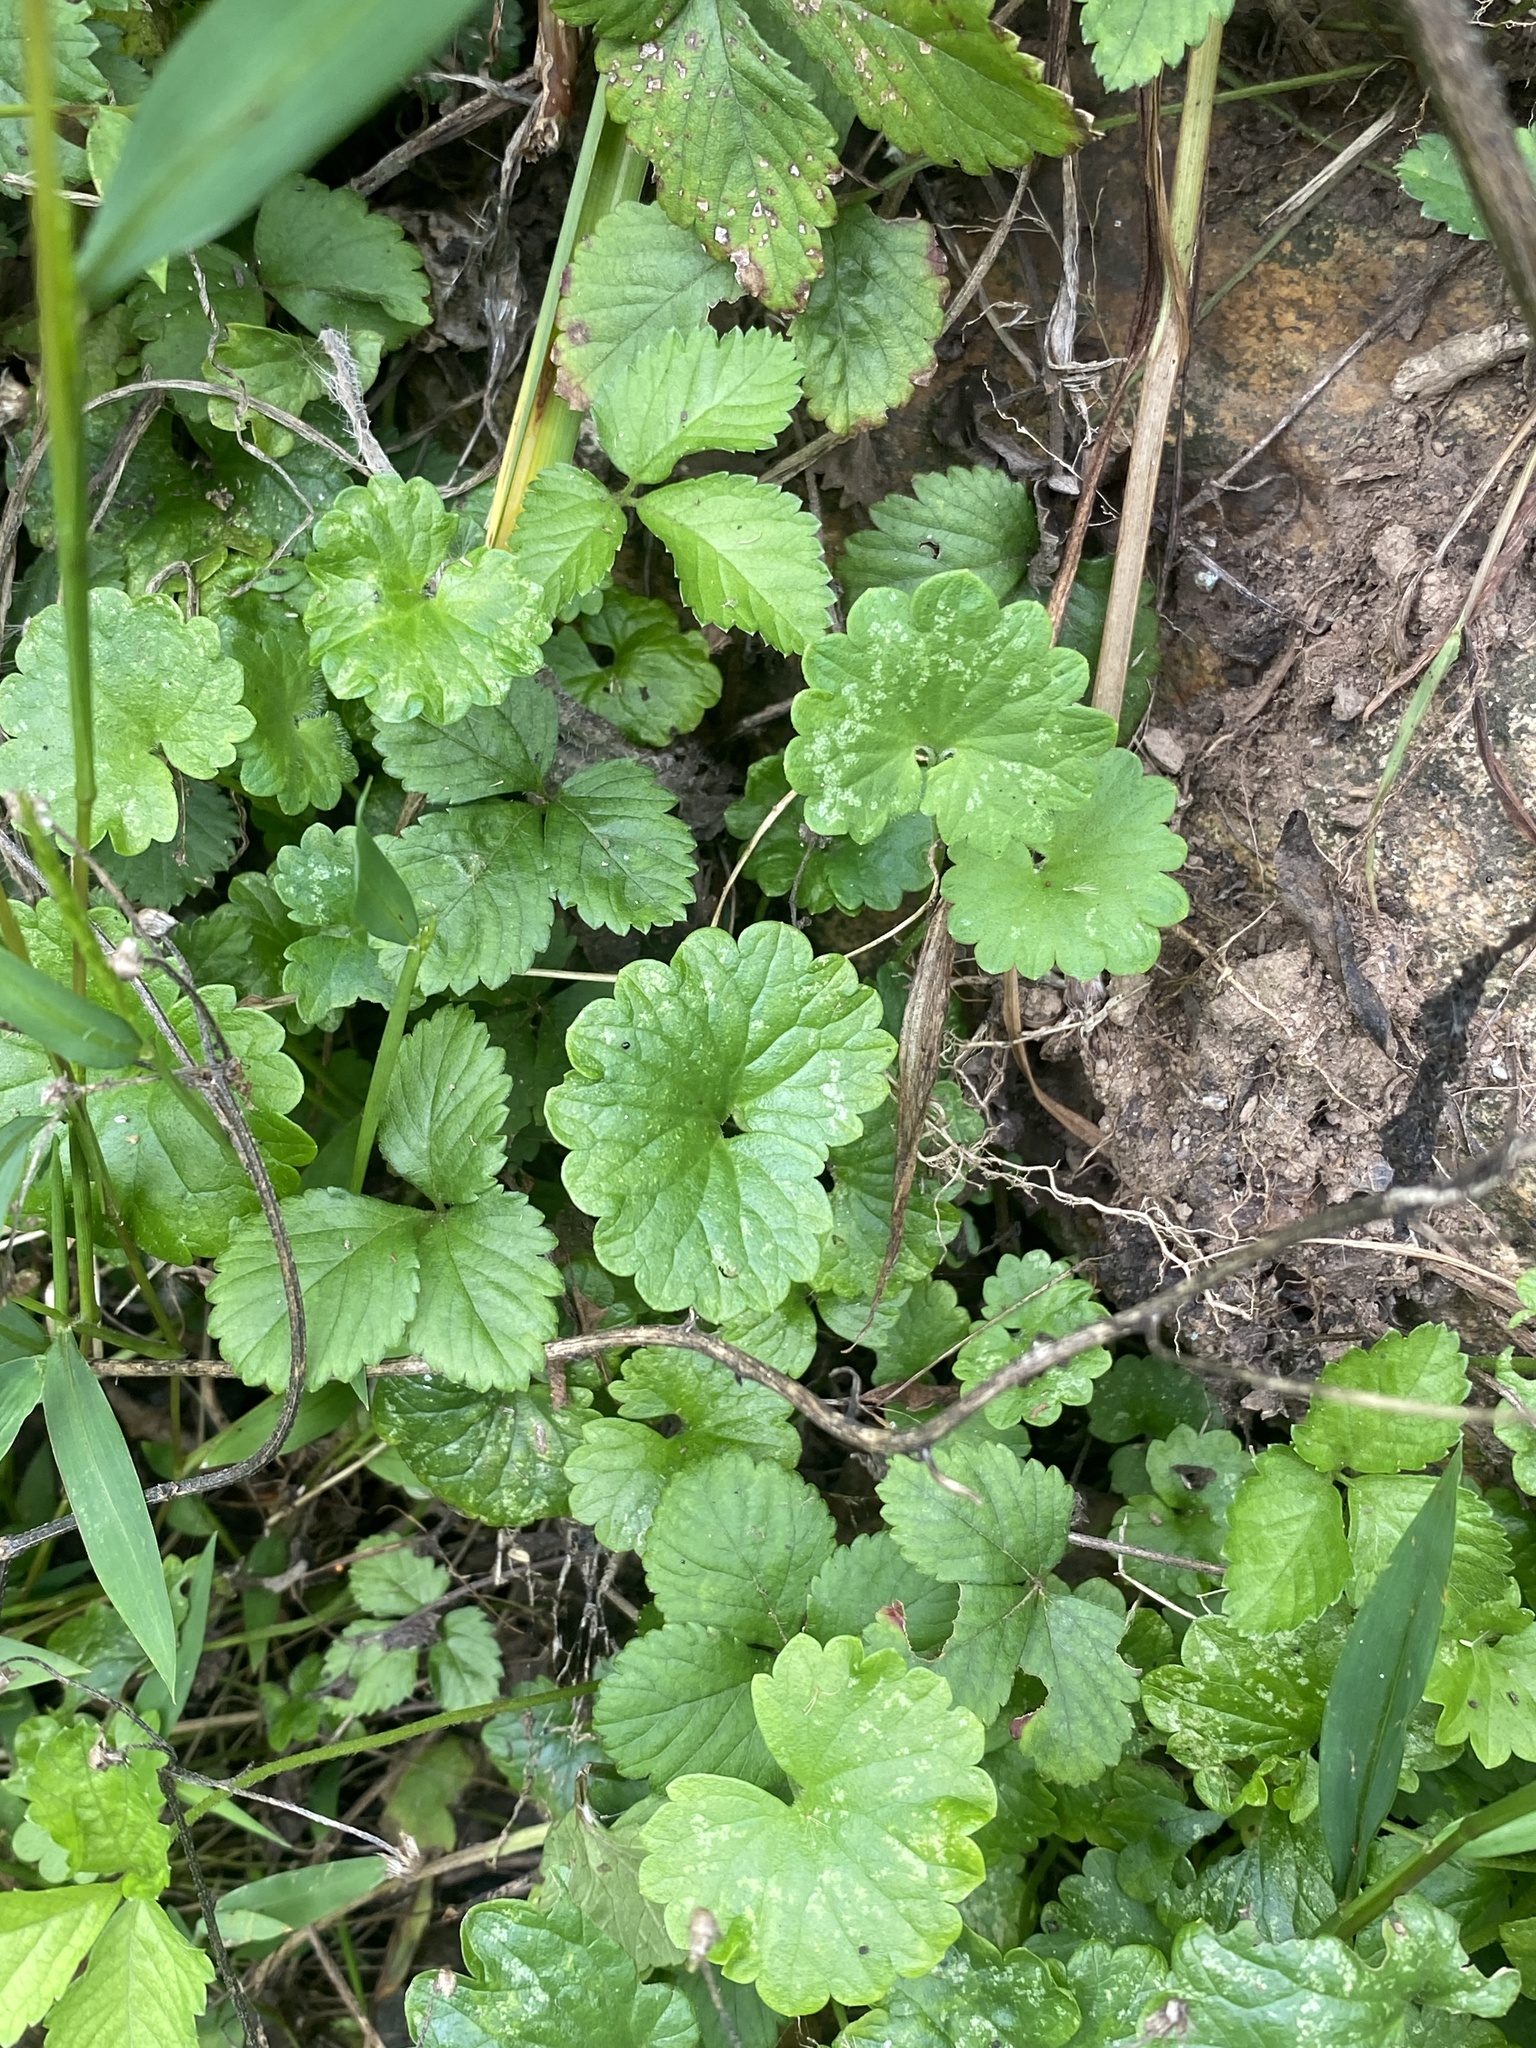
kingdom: Plantae
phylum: Tracheophyta
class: Magnoliopsida
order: Lamiales
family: Lamiaceae
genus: Glechoma
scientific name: Glechoma hederacea
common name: Ground ivy
